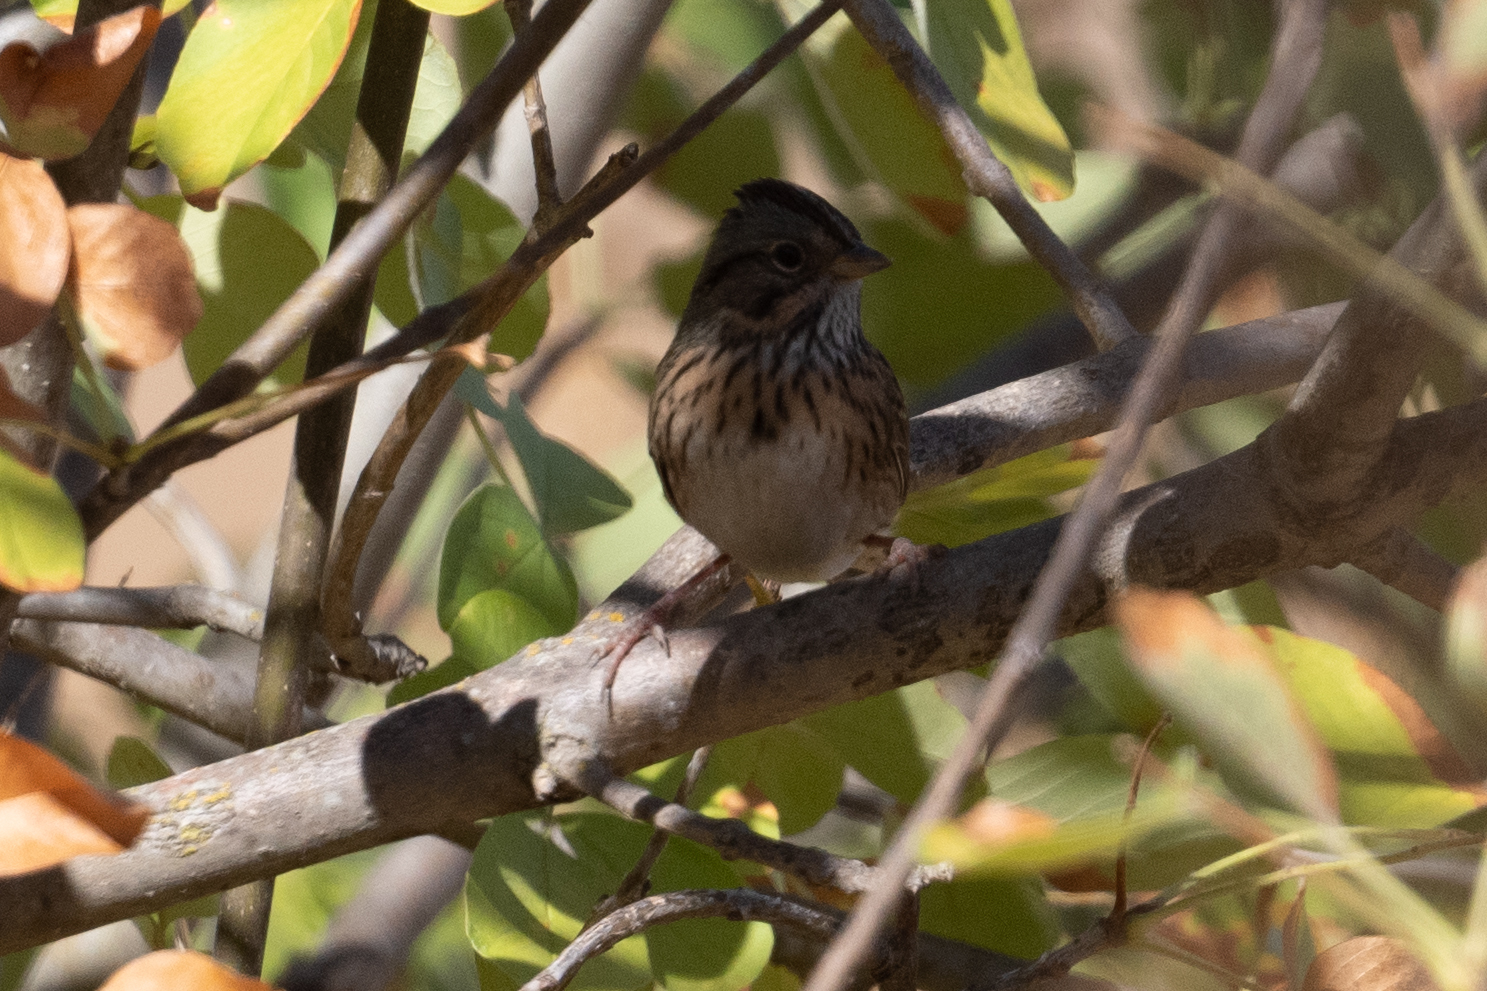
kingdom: Animalia
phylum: Chordata
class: Aves
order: Passeriformes
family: Passerellidae
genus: Melospiza
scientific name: Melospiza lincolnii
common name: Lincoln's sparrow
